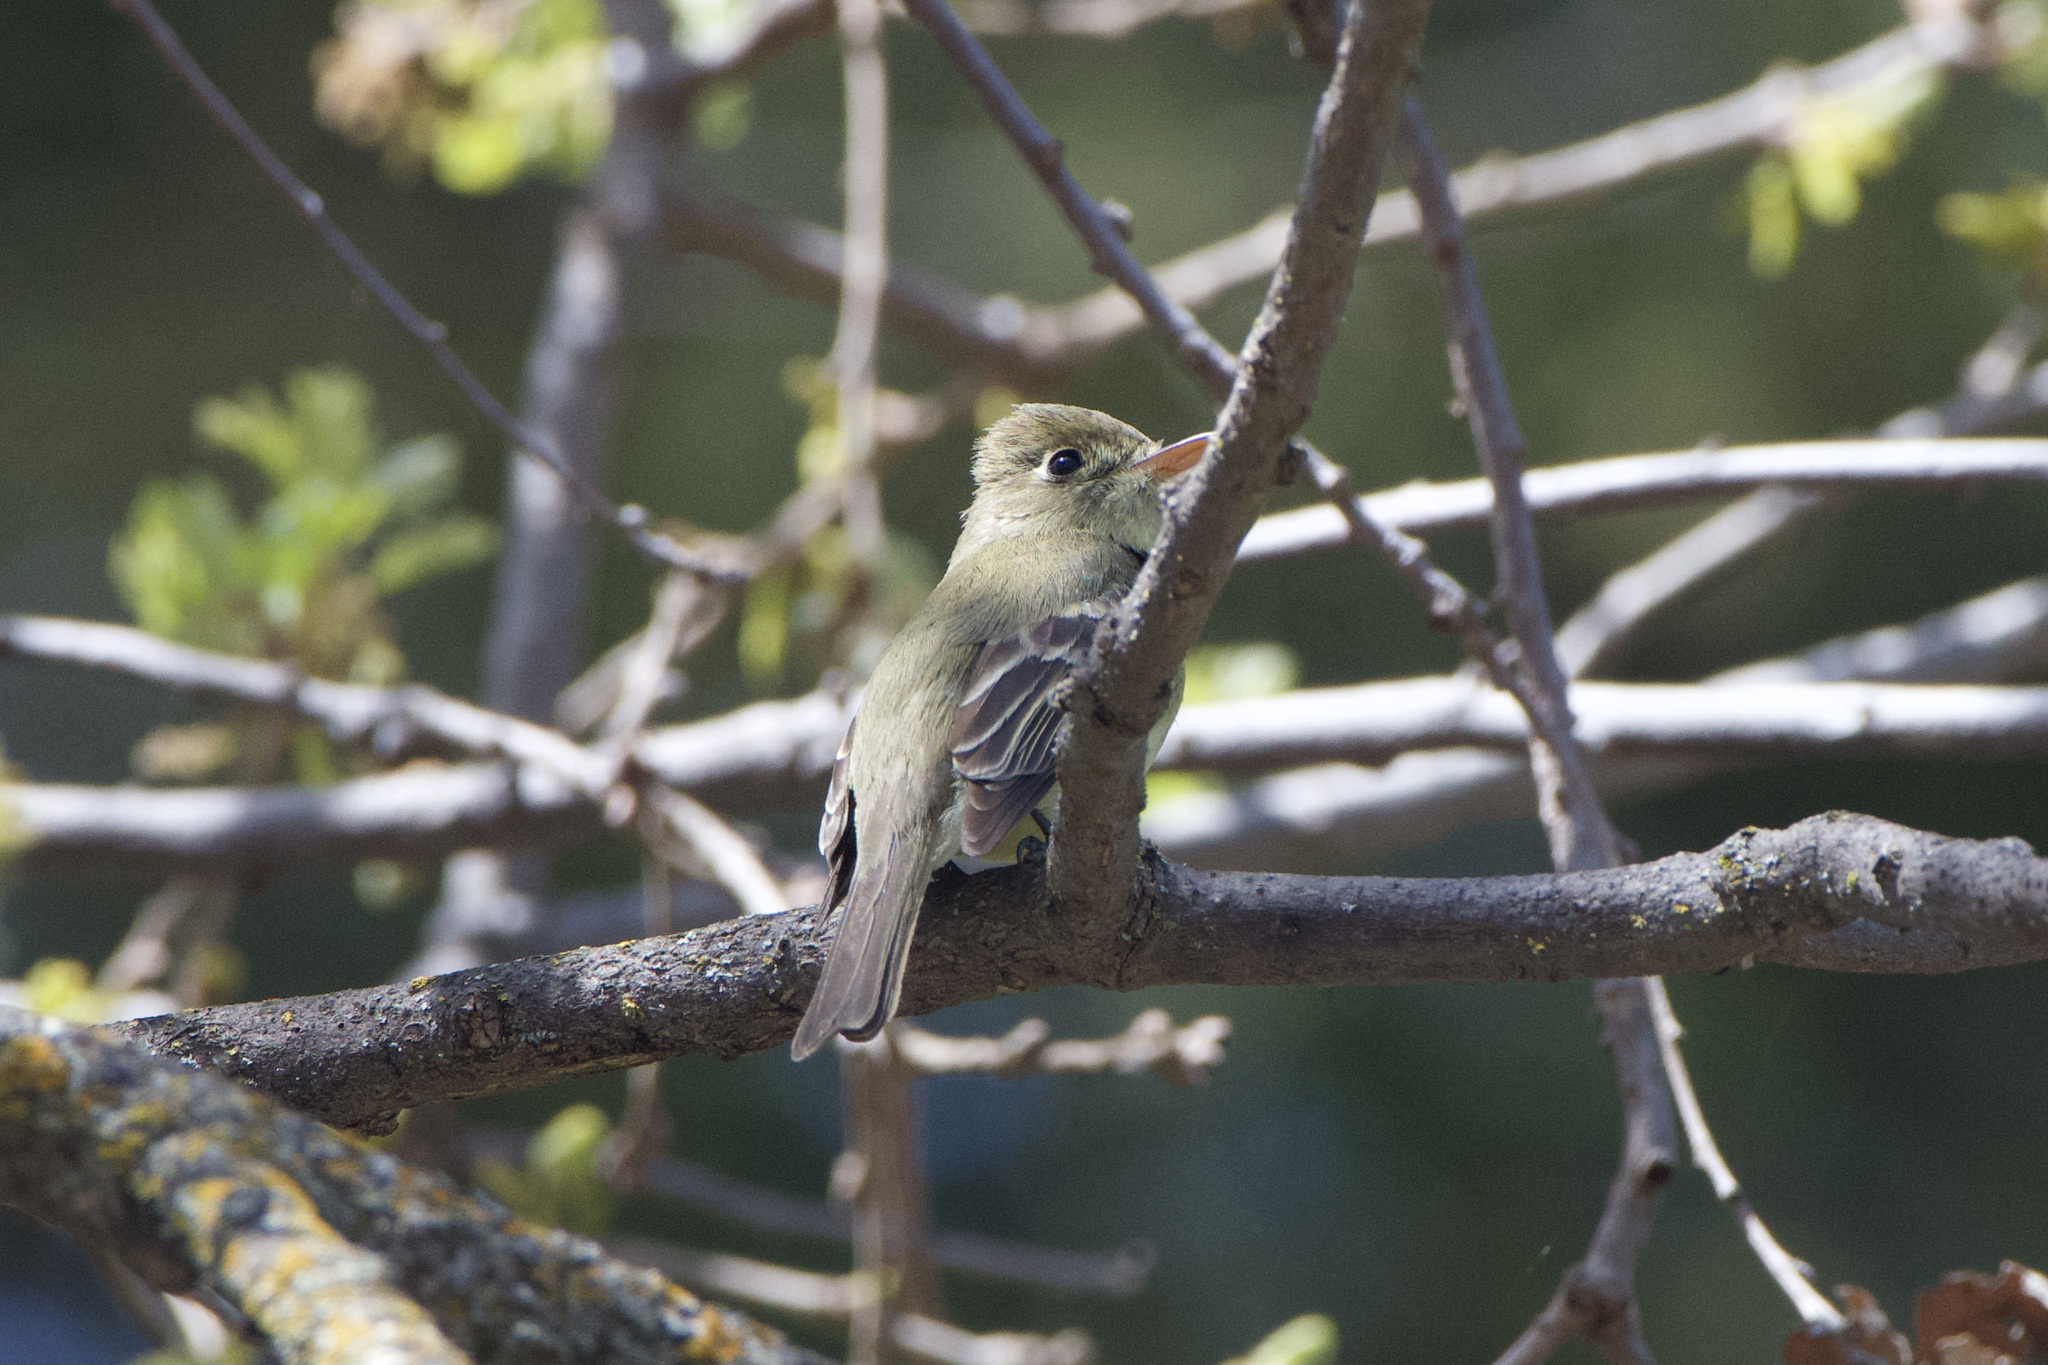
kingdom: Animalia
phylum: Chordata
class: Aves
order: Passeriformes
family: Tyrannidae
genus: Empidonax
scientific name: Empidonax difficilis
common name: Pacific-slope flycatcher
